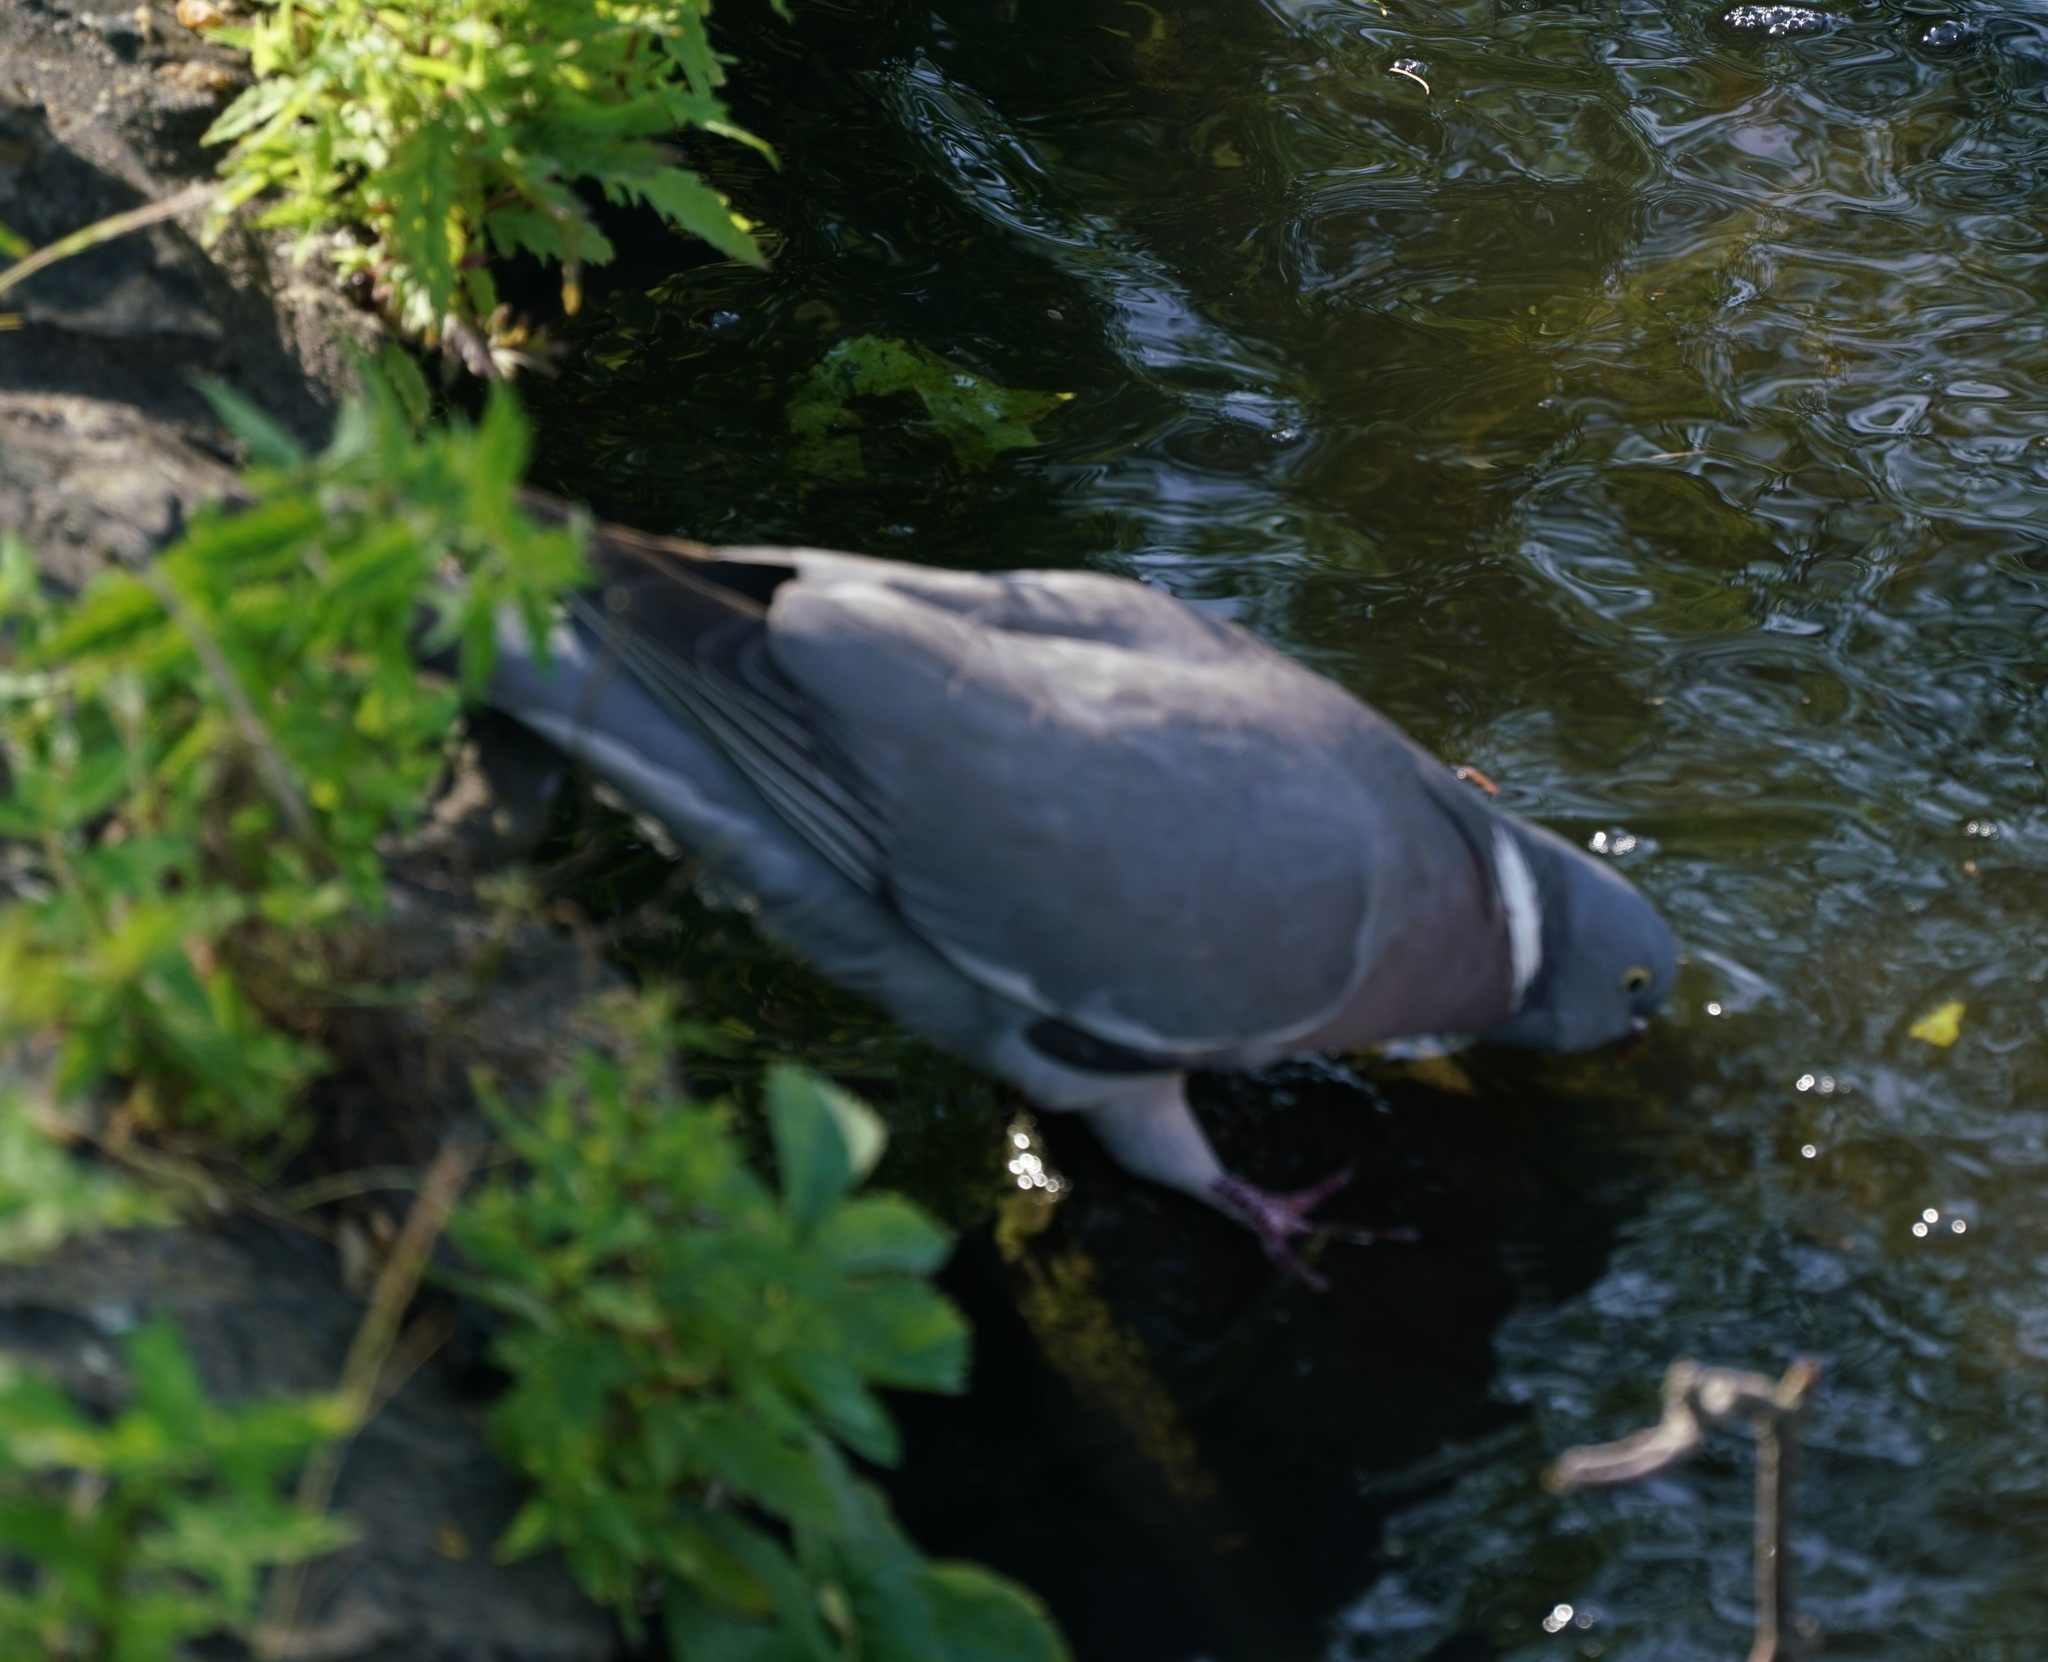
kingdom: Animalia
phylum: Chordata
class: Aves
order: Columbiformes
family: Columbidae
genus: Columba
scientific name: Columba palumbus
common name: Common wood pigeon
